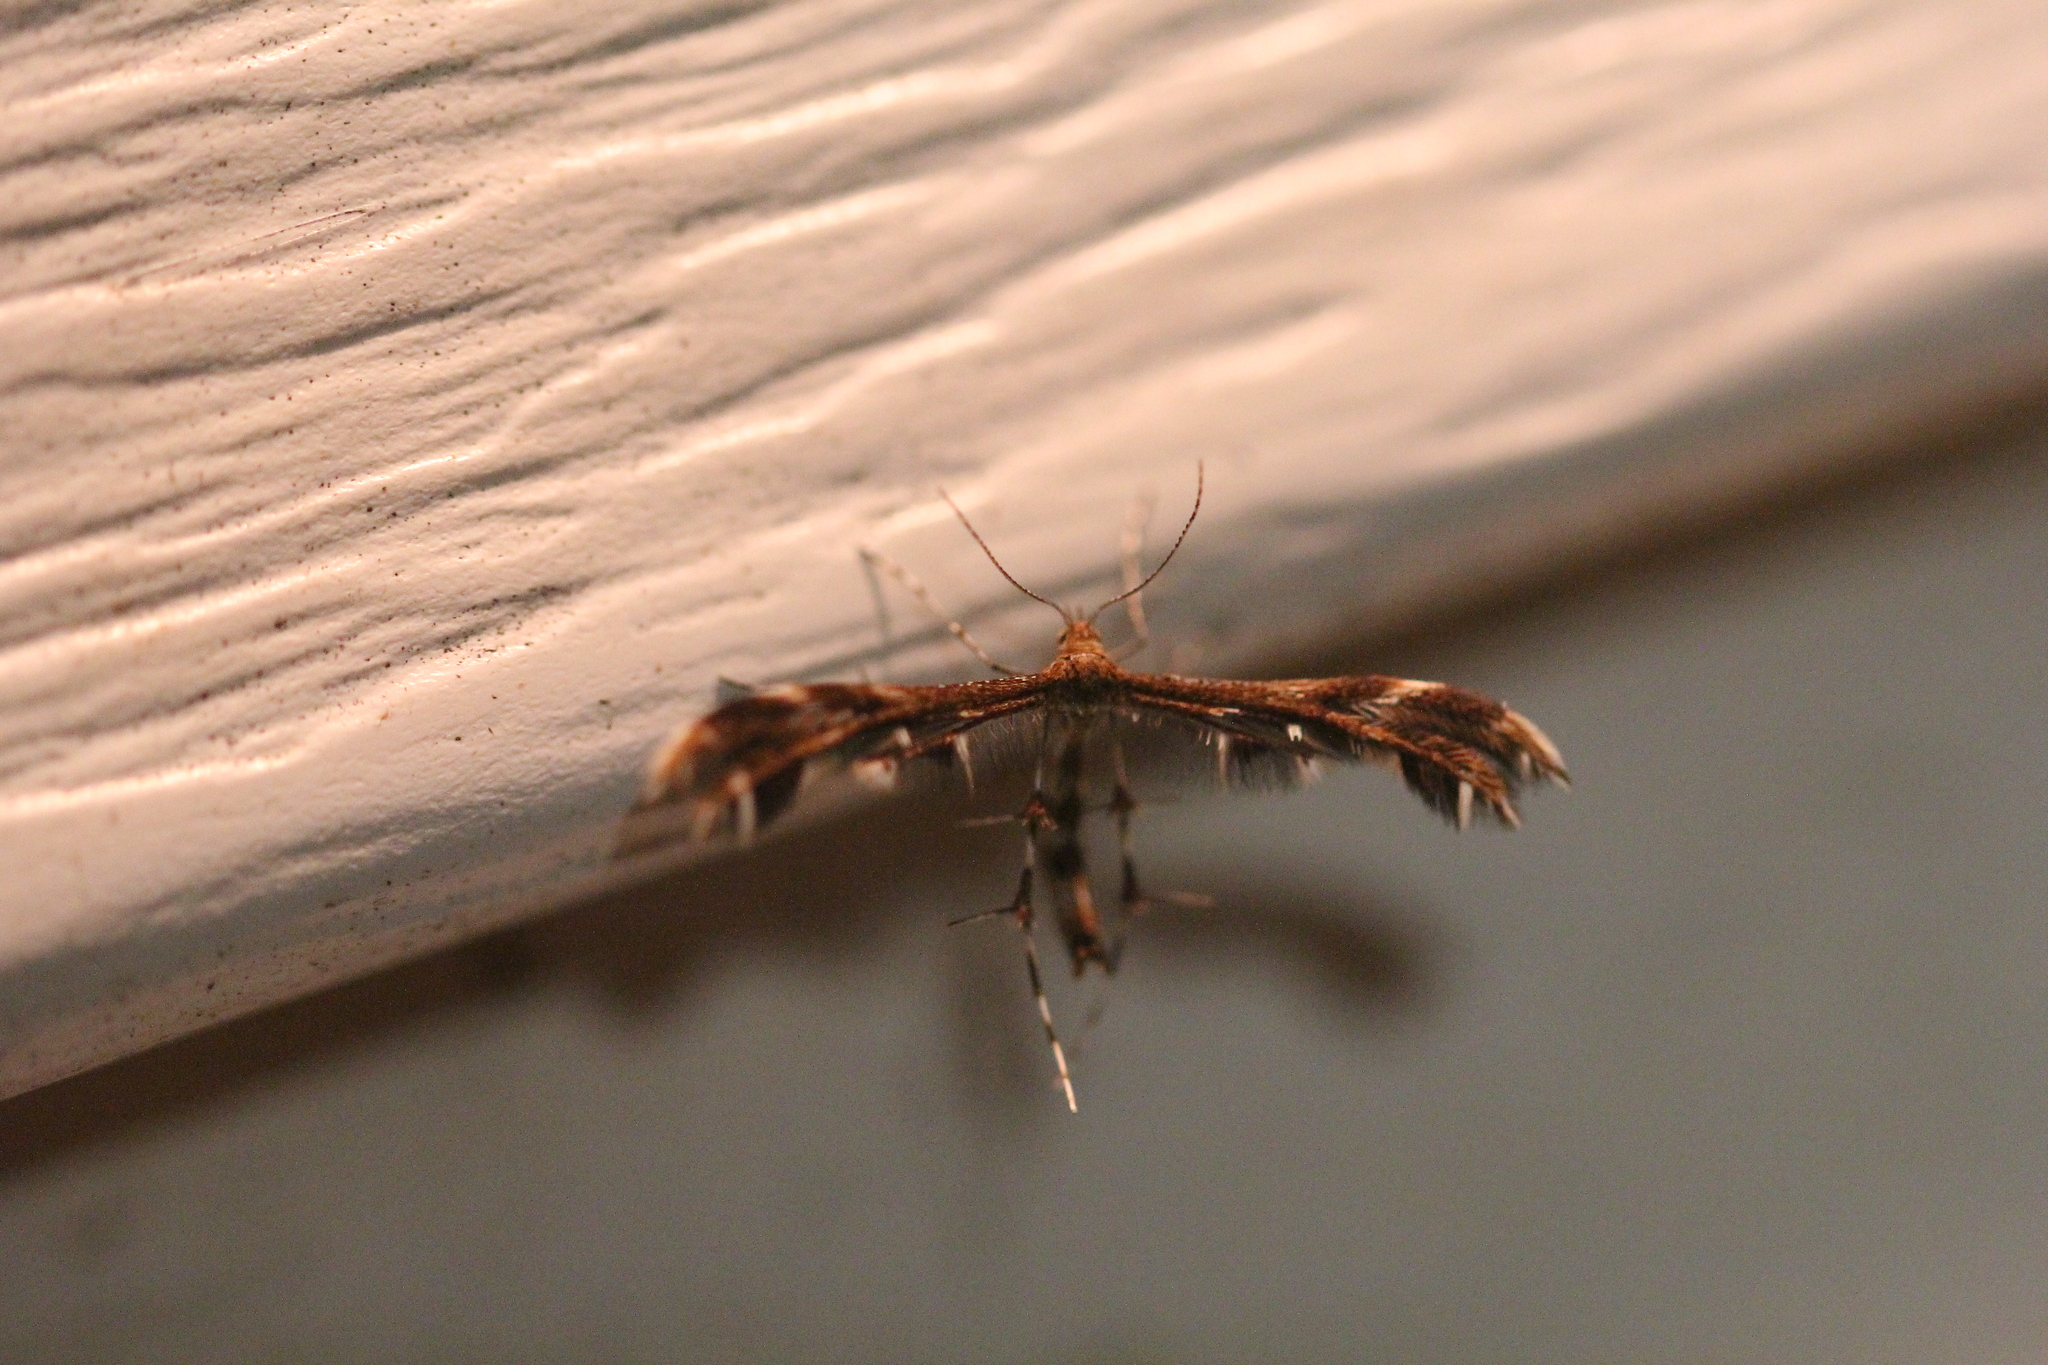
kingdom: Animalia
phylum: Arthropoda
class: Insecta
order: Lepidoptera
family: Pterophoridae
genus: Dejongia
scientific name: Dejongia lobidactylus
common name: Lobed plume moth
